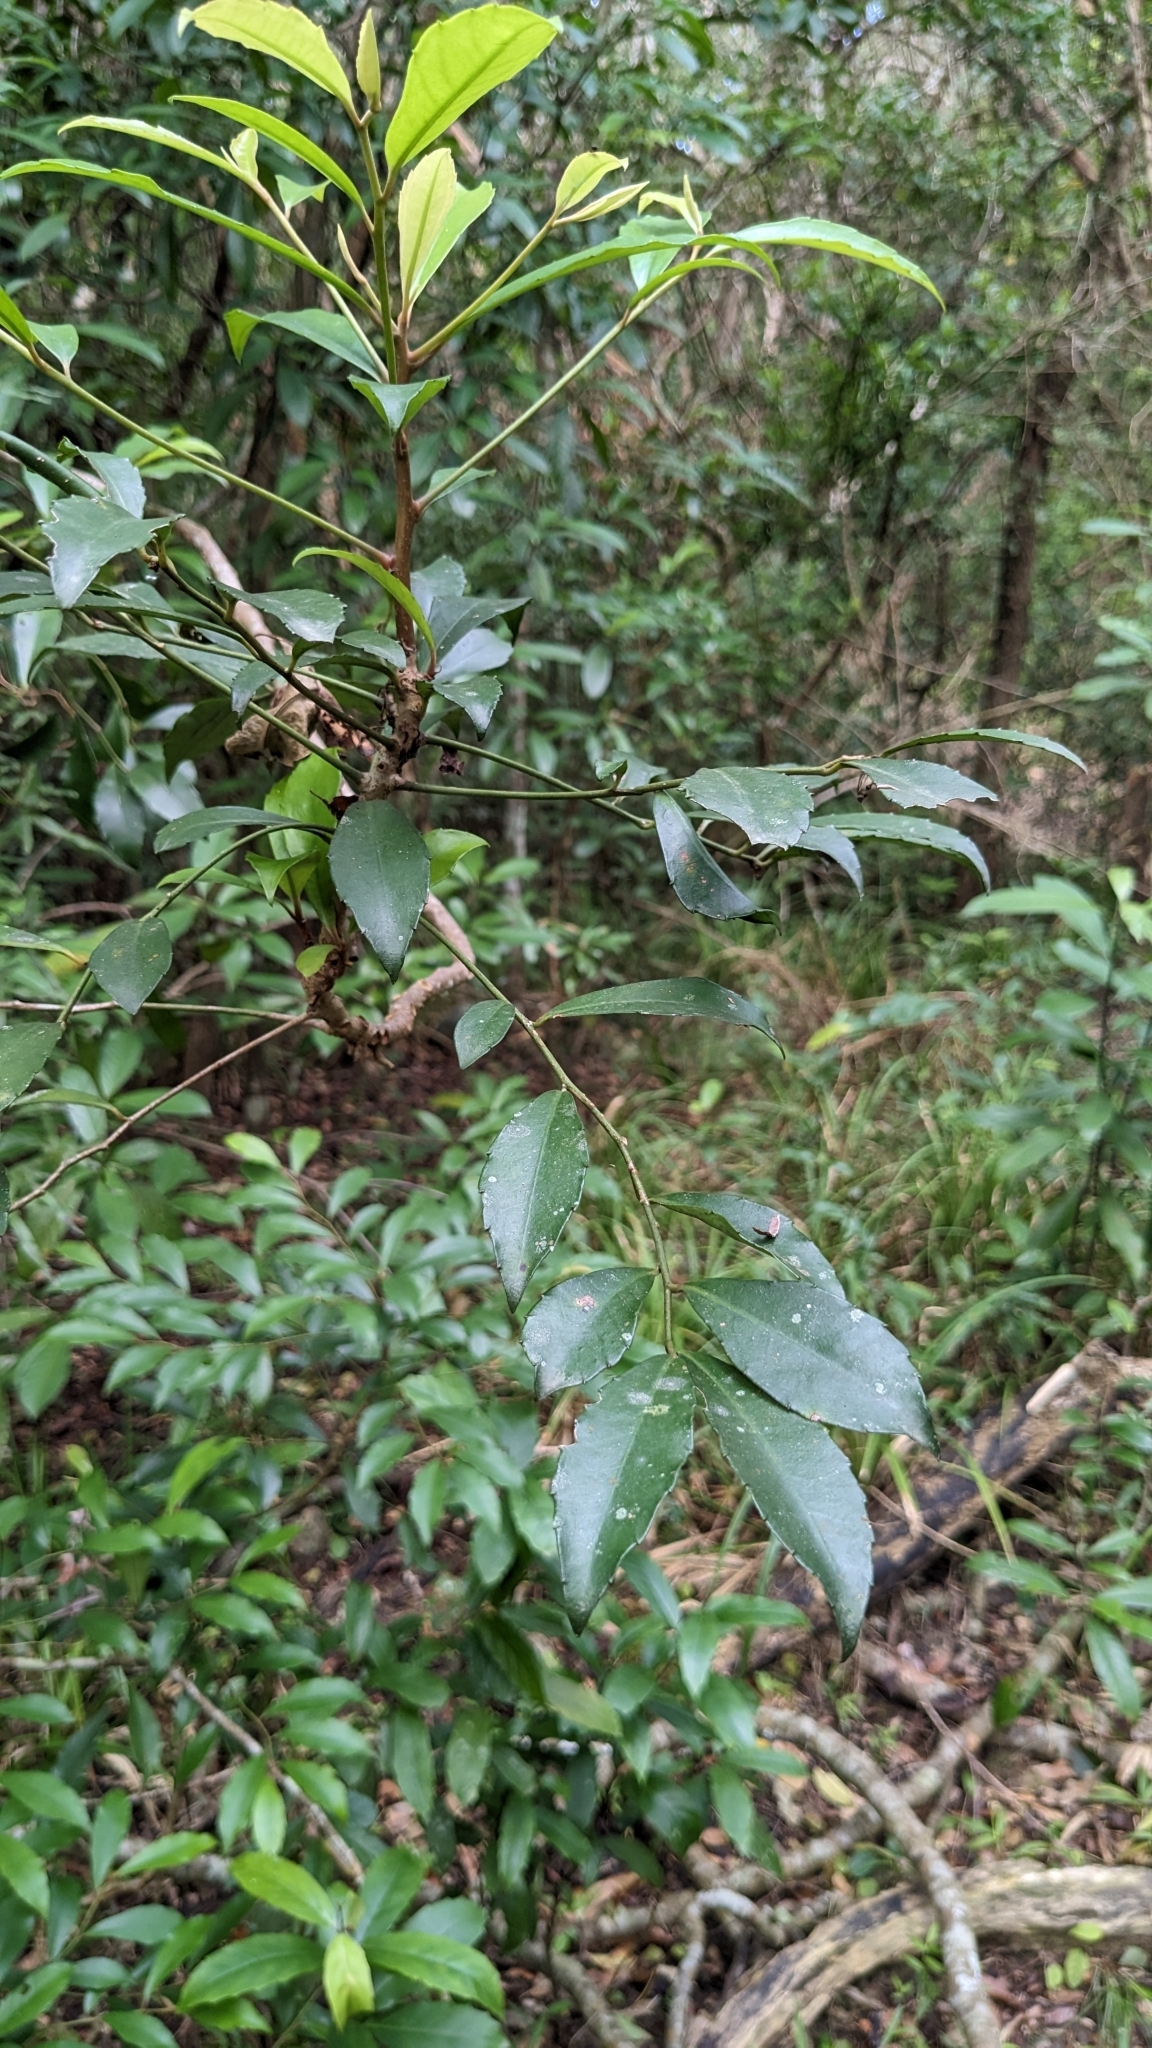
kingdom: Plantae
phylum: Tracheophyta
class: Magnoliopsida
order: Ericales
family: Primulaceae
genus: Ardisia
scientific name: Ardisia cornudentata
